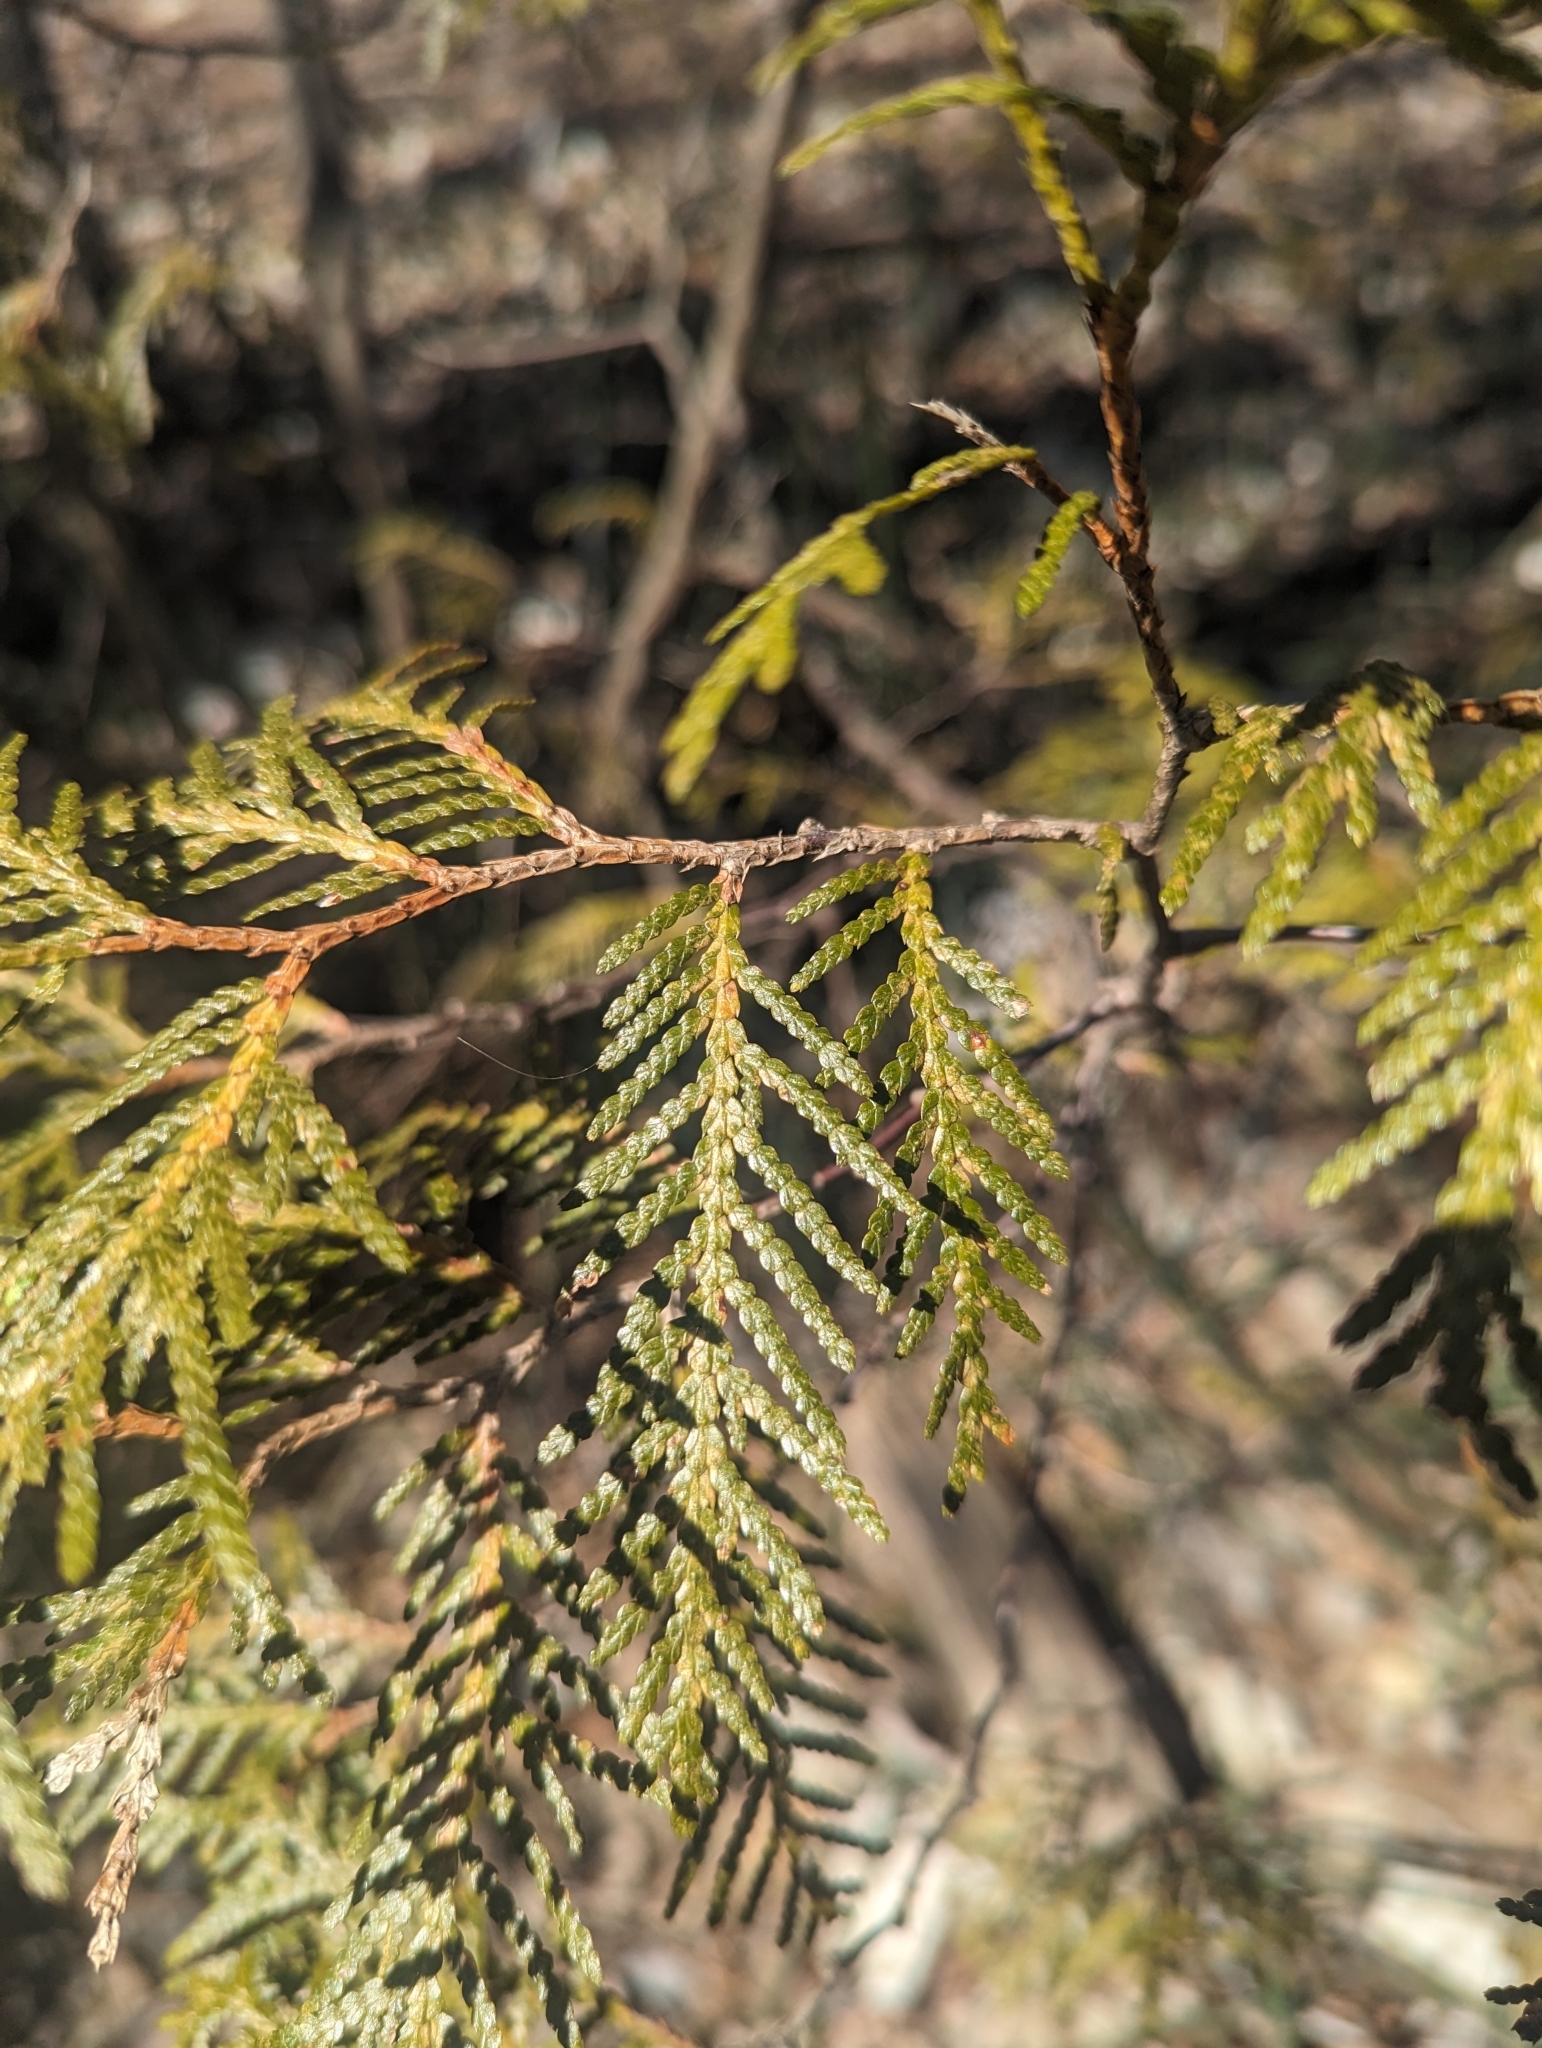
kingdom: Plantae
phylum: Tracheophyta
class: Pinopsida
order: Pinales
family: Cupressaceae
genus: Thuja
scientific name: Thuja occidentalis
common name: Northern white-cedar
